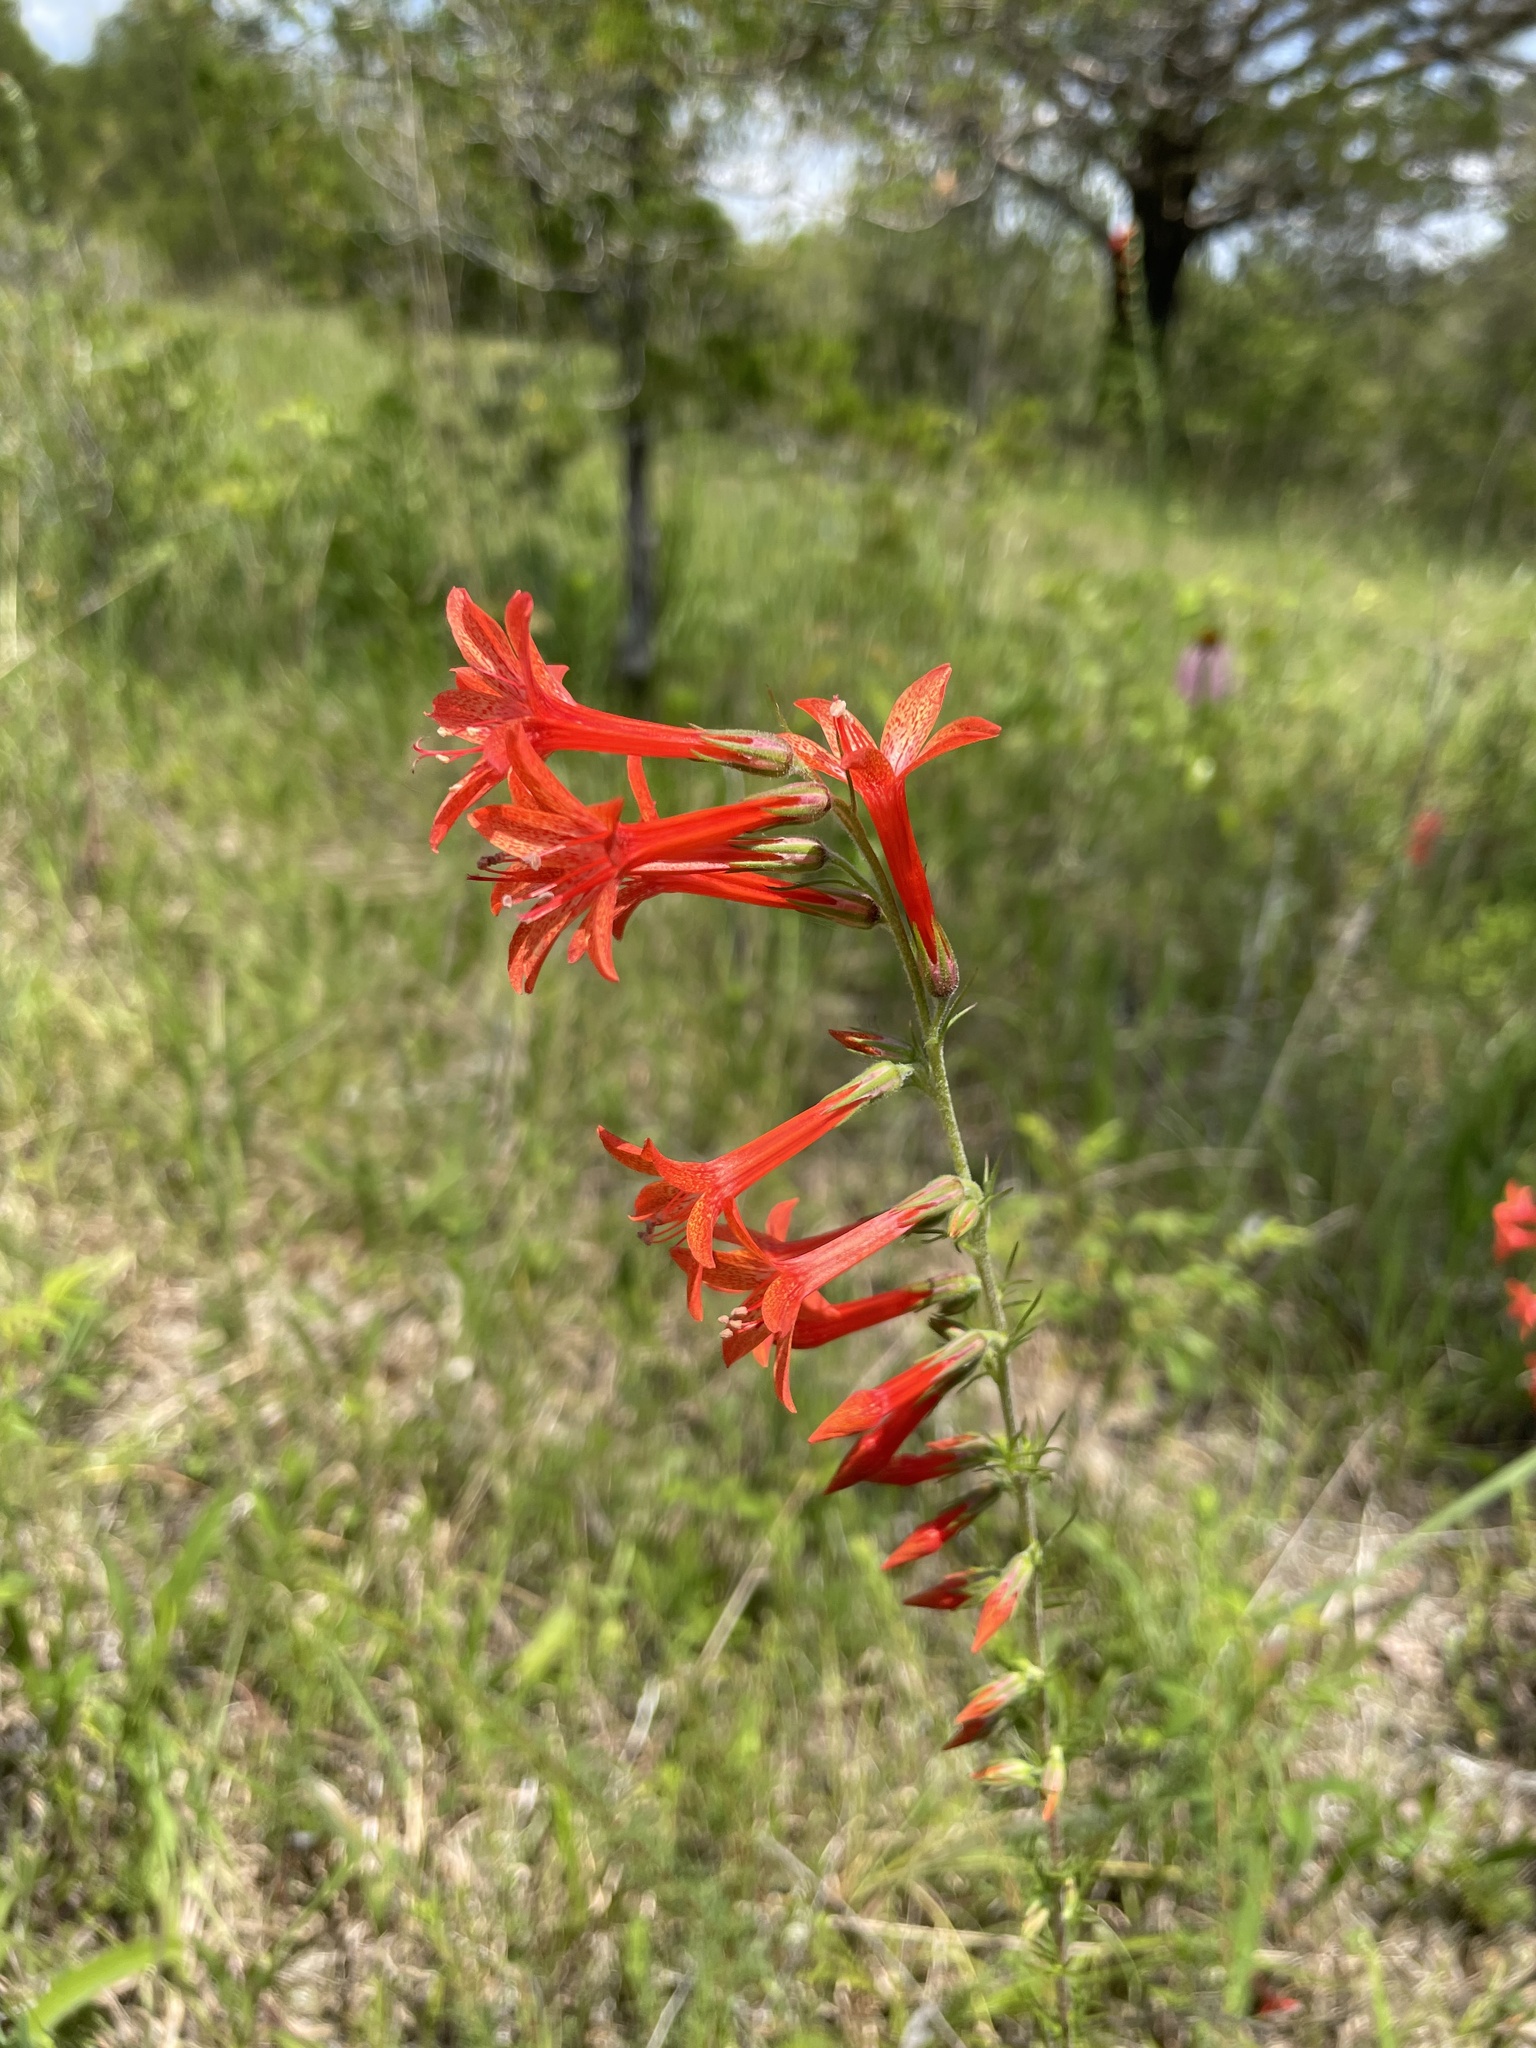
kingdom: Plantae
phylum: Tracheophyta
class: Magnoliopsida
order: Ericales
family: Polemoniaceae
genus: Ipomopsis
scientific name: Ipomopsis rubra
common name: Skyrocket
